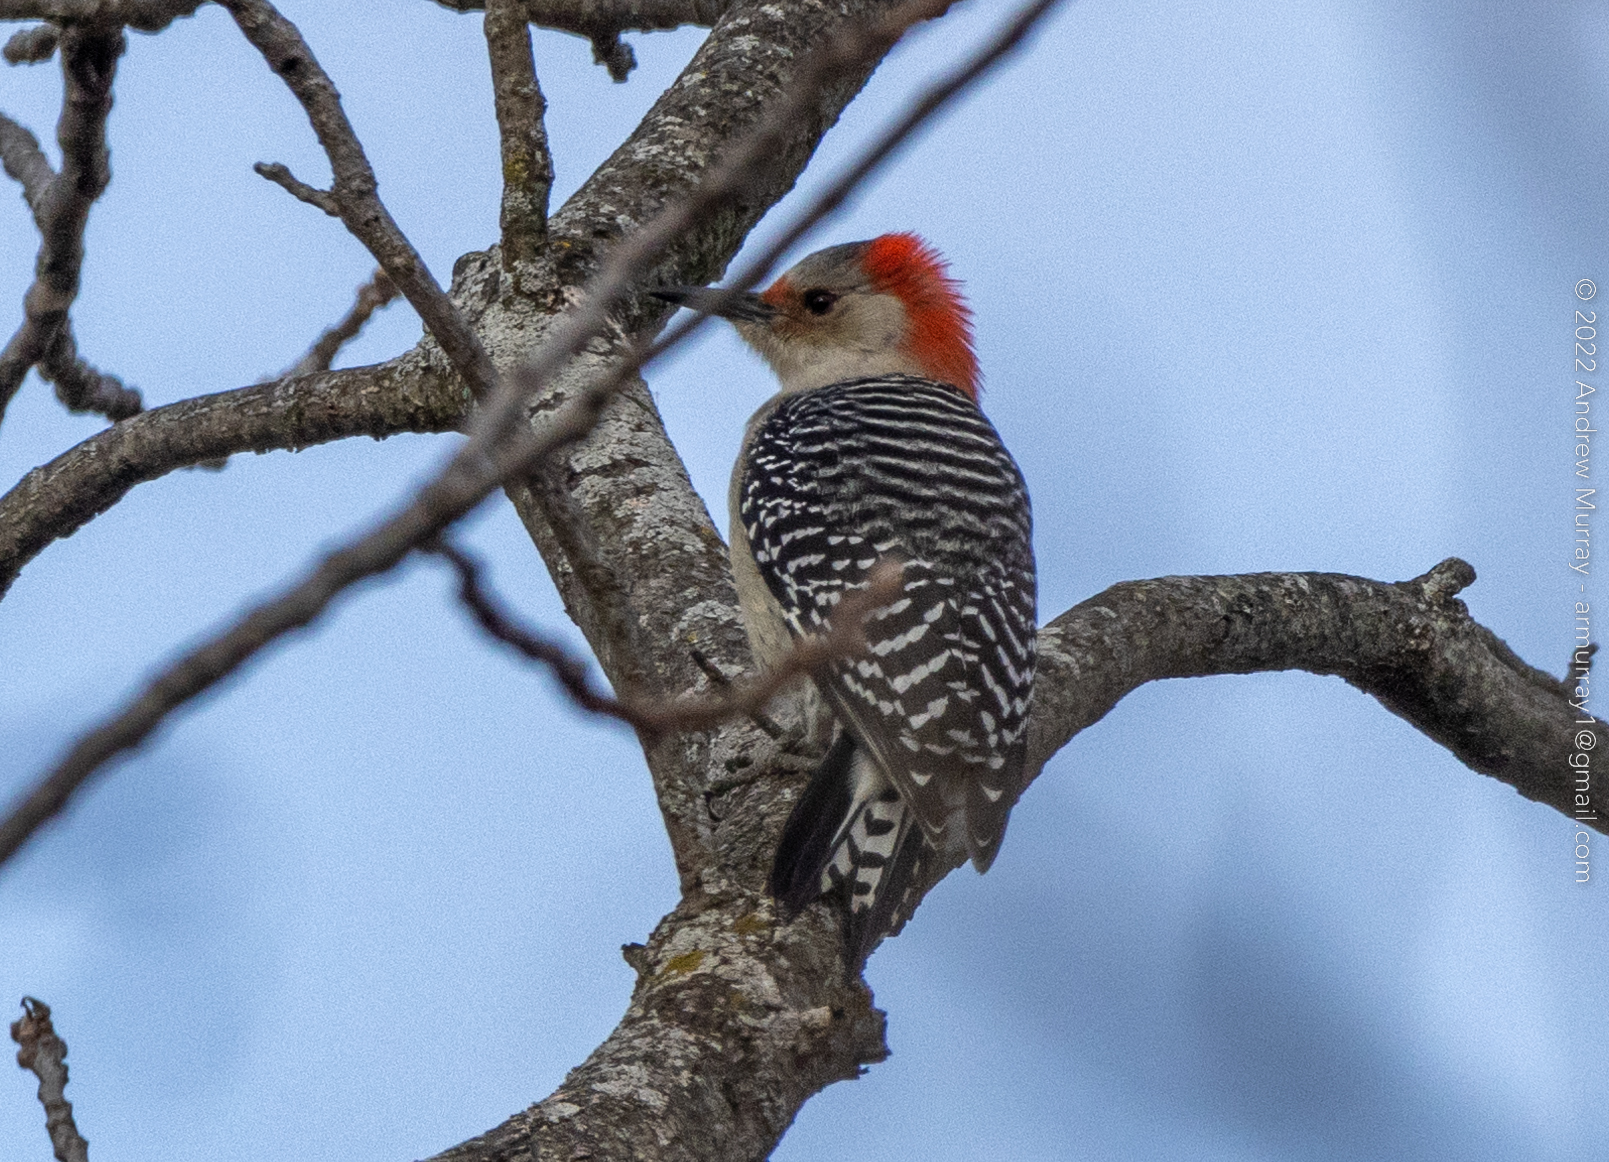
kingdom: Animalia
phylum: Chordata
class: Aves
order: Piciformes
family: Picidae
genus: Melanerpes
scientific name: Melanerpes carolinus
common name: Red-bellied woodpecker
